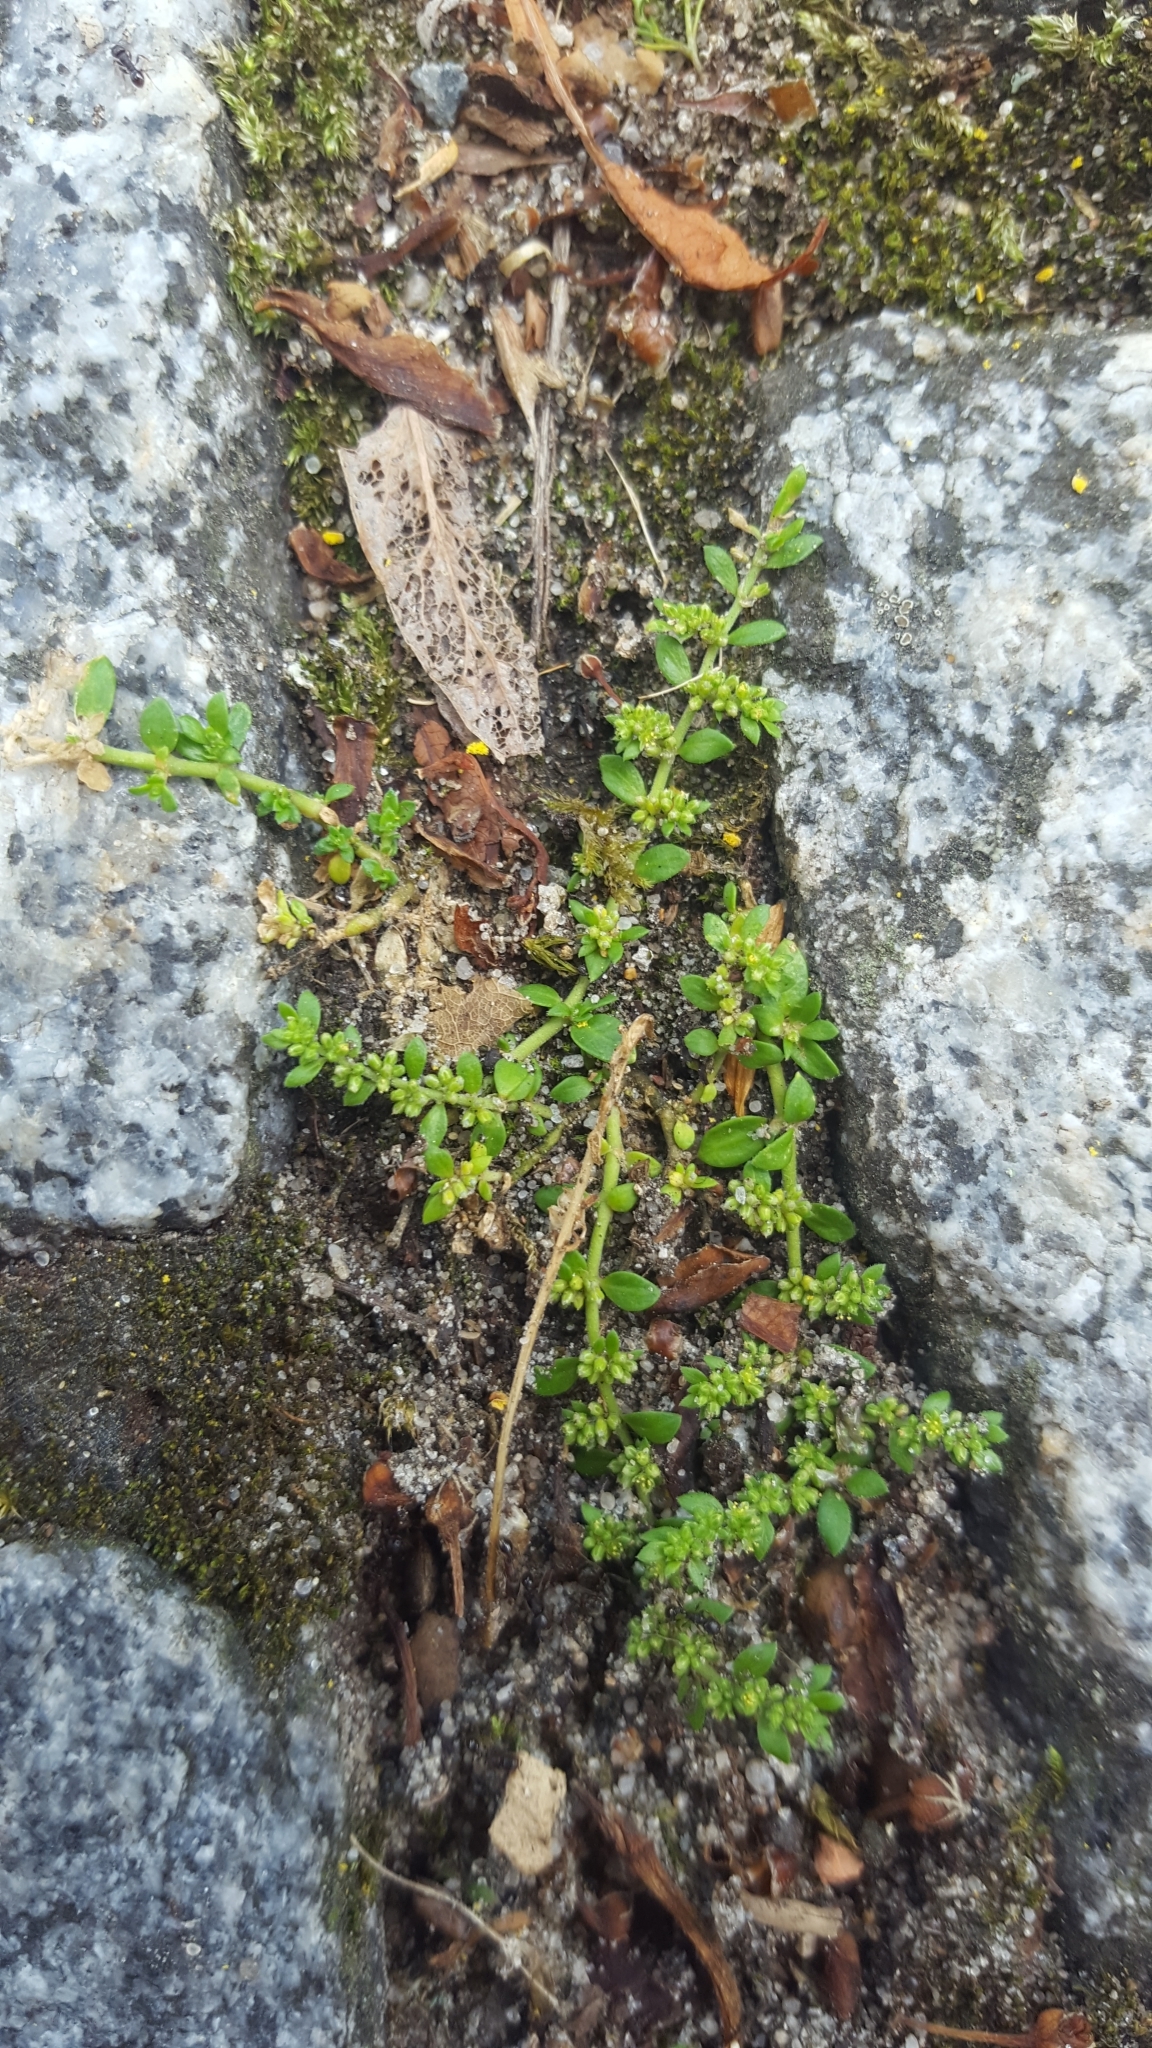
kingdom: Plantae
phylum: Tracheophyta
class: Magnoliopsida
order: Caryophyllales
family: Caryophyllaceae
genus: Herniaria
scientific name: Herniaria glabra
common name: Smooth rupturewort
